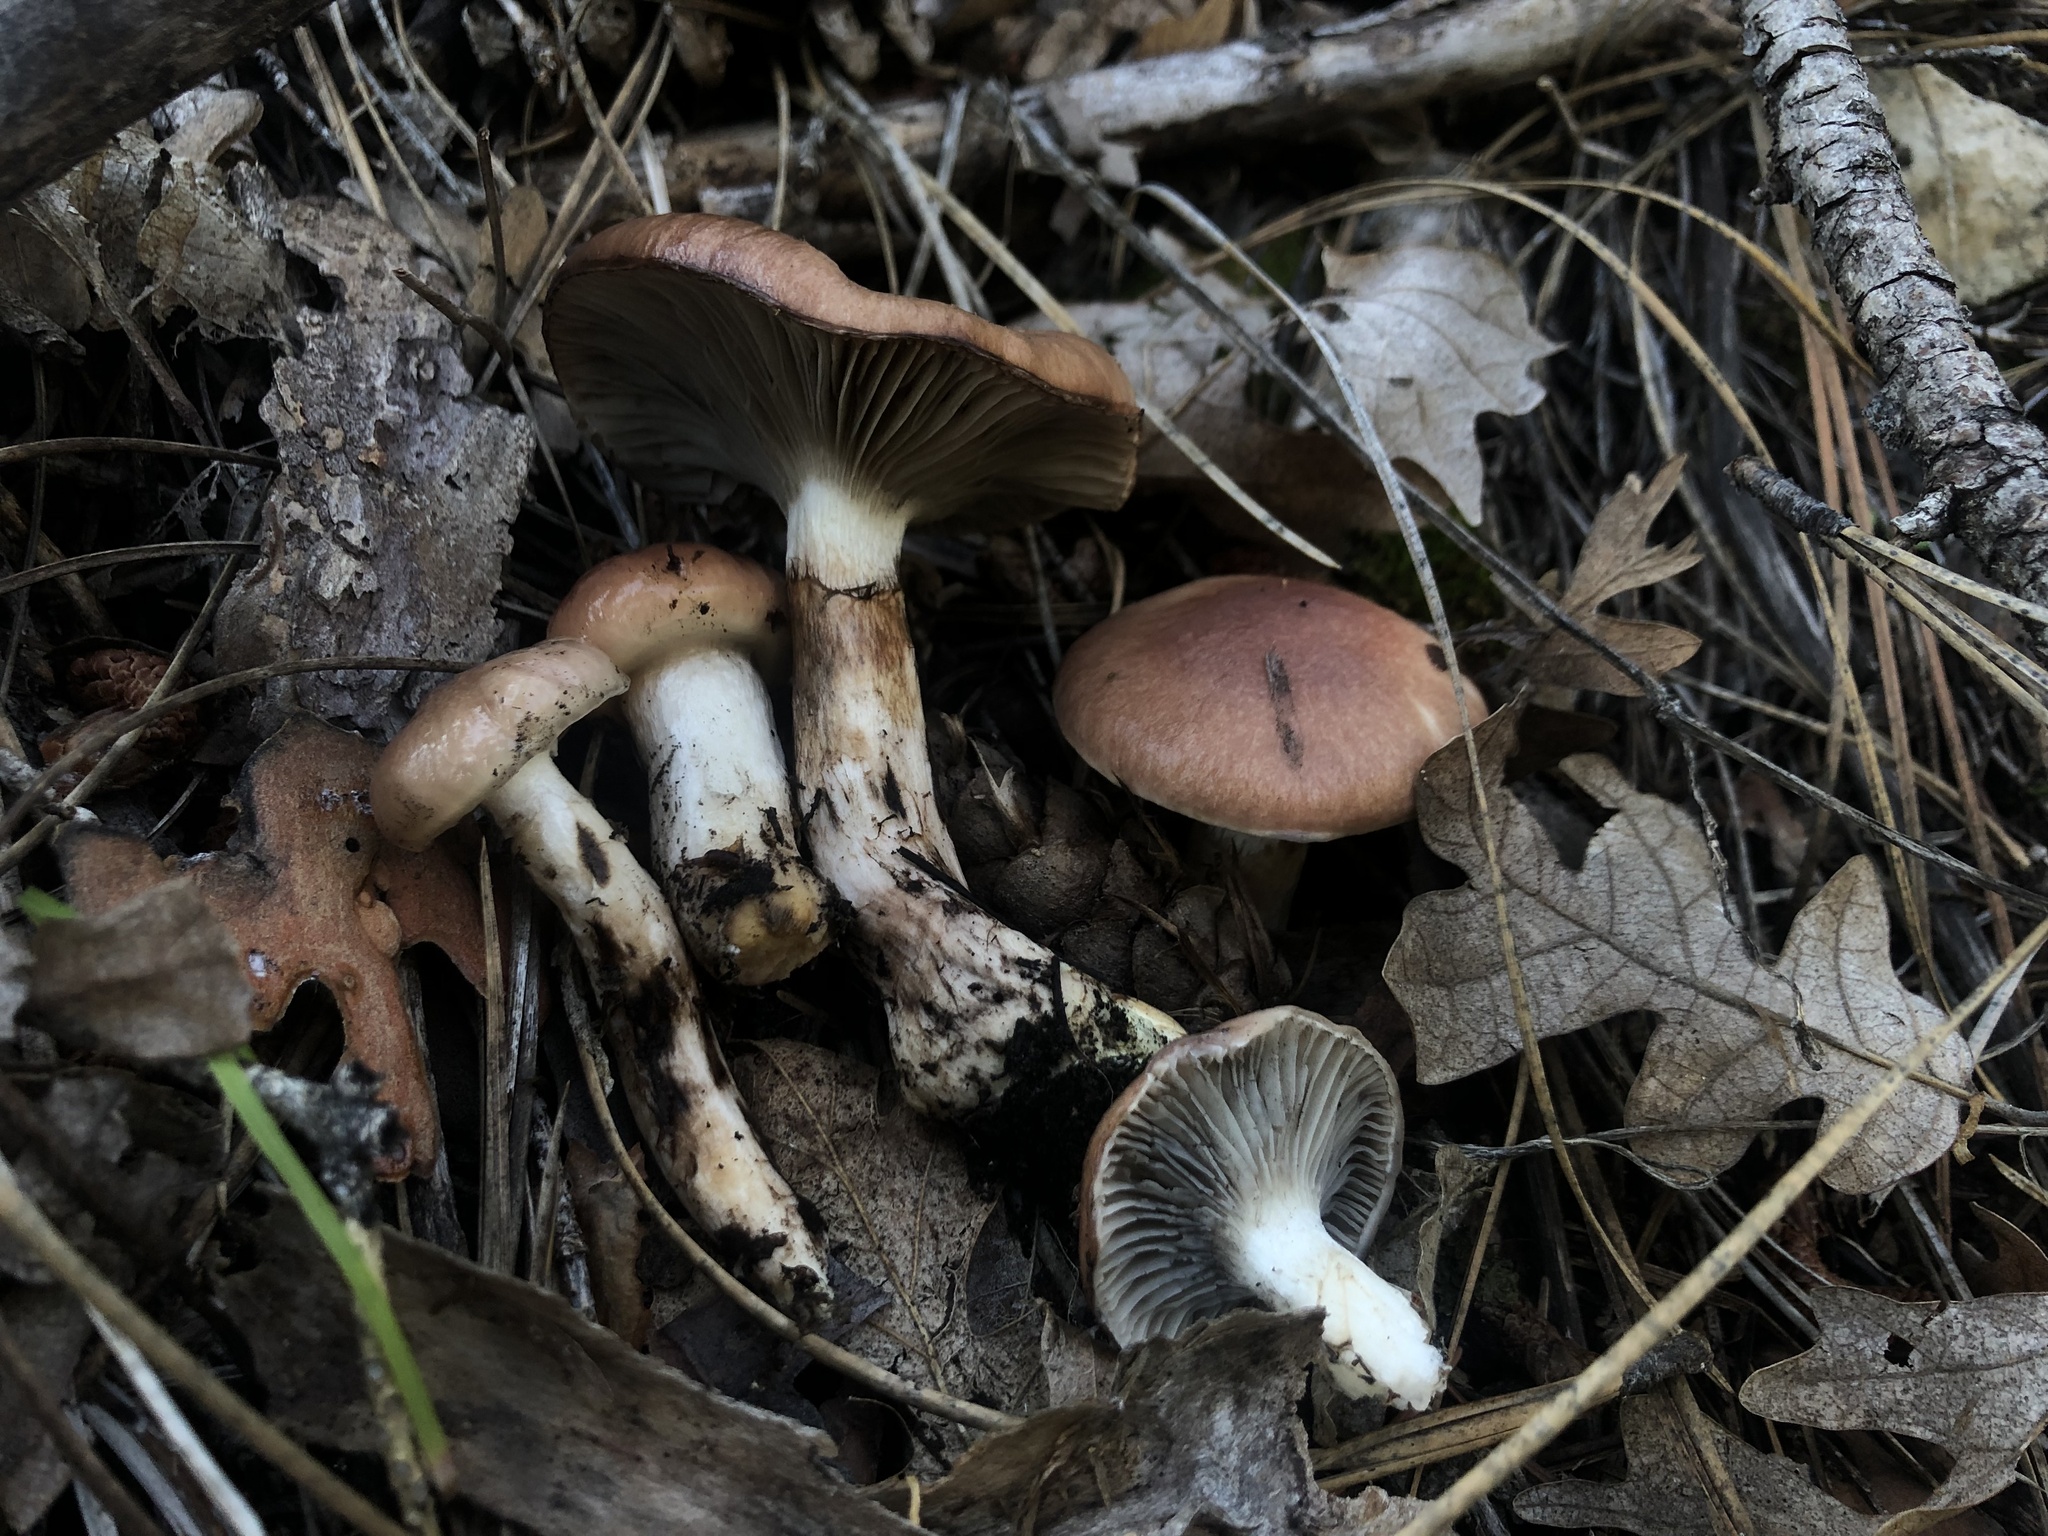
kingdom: Fungi
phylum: Basidiomycota
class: Agaricomycetes
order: Boletales
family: Gomphidiaceae
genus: Gomphidius
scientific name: Gomphidius smithii
